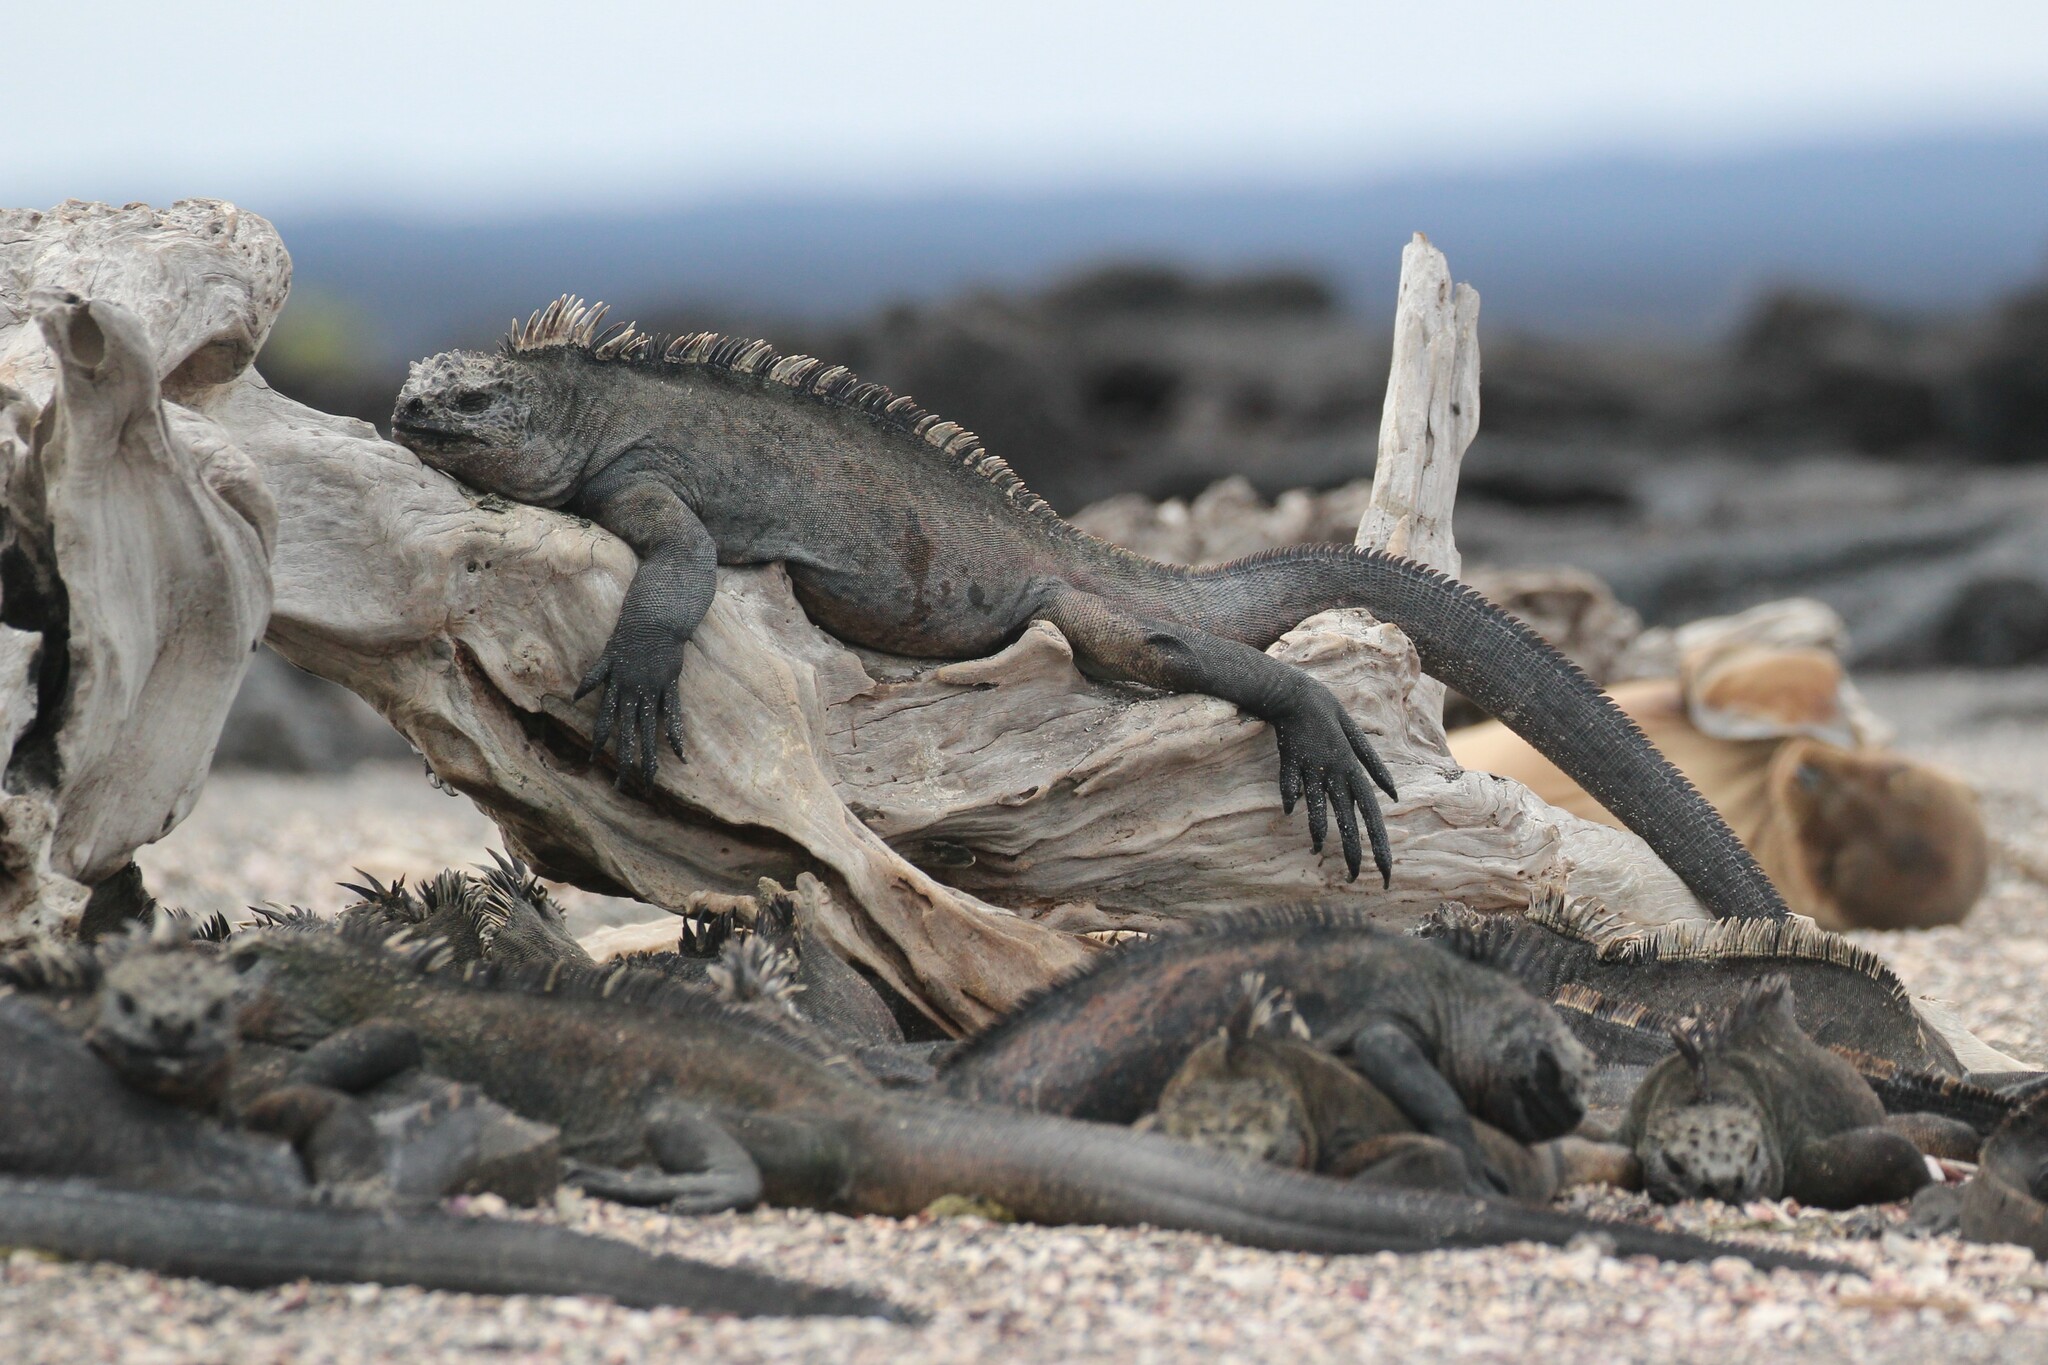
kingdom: Animalia
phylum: Chordata
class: Squamata
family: Iguanidae
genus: Amblyrhynchus
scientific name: Amblyrhynchus cristatus
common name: Marine iguana
